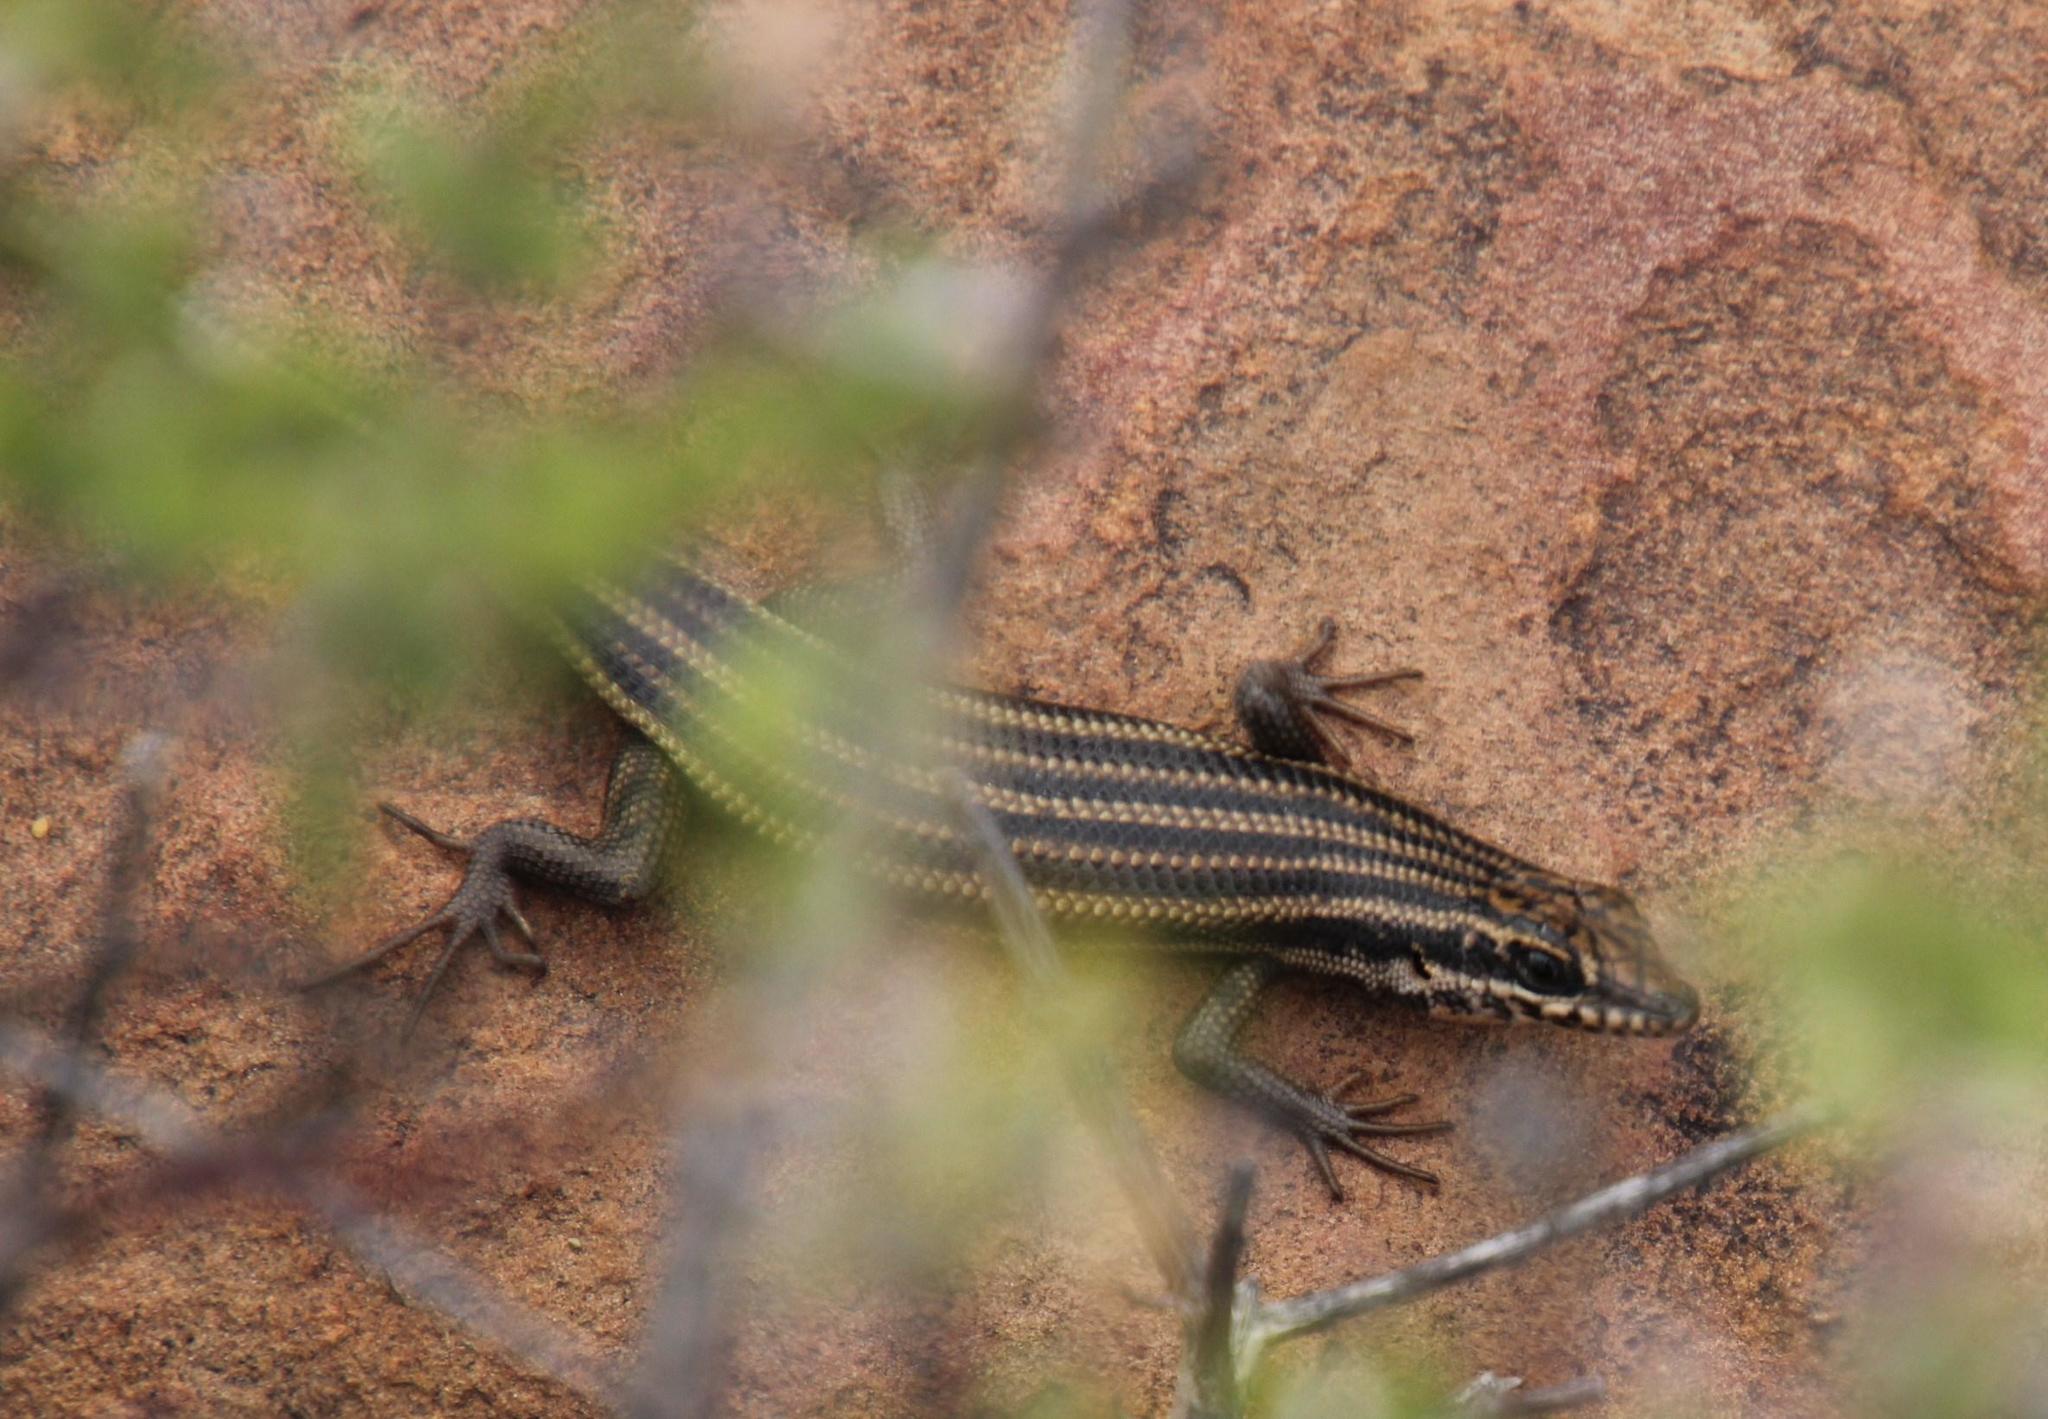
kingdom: Animalia
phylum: Chordata
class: Squamata
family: Scincidae
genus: Trachylepis
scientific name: Trachylepis sulcata
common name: Western rock skink
